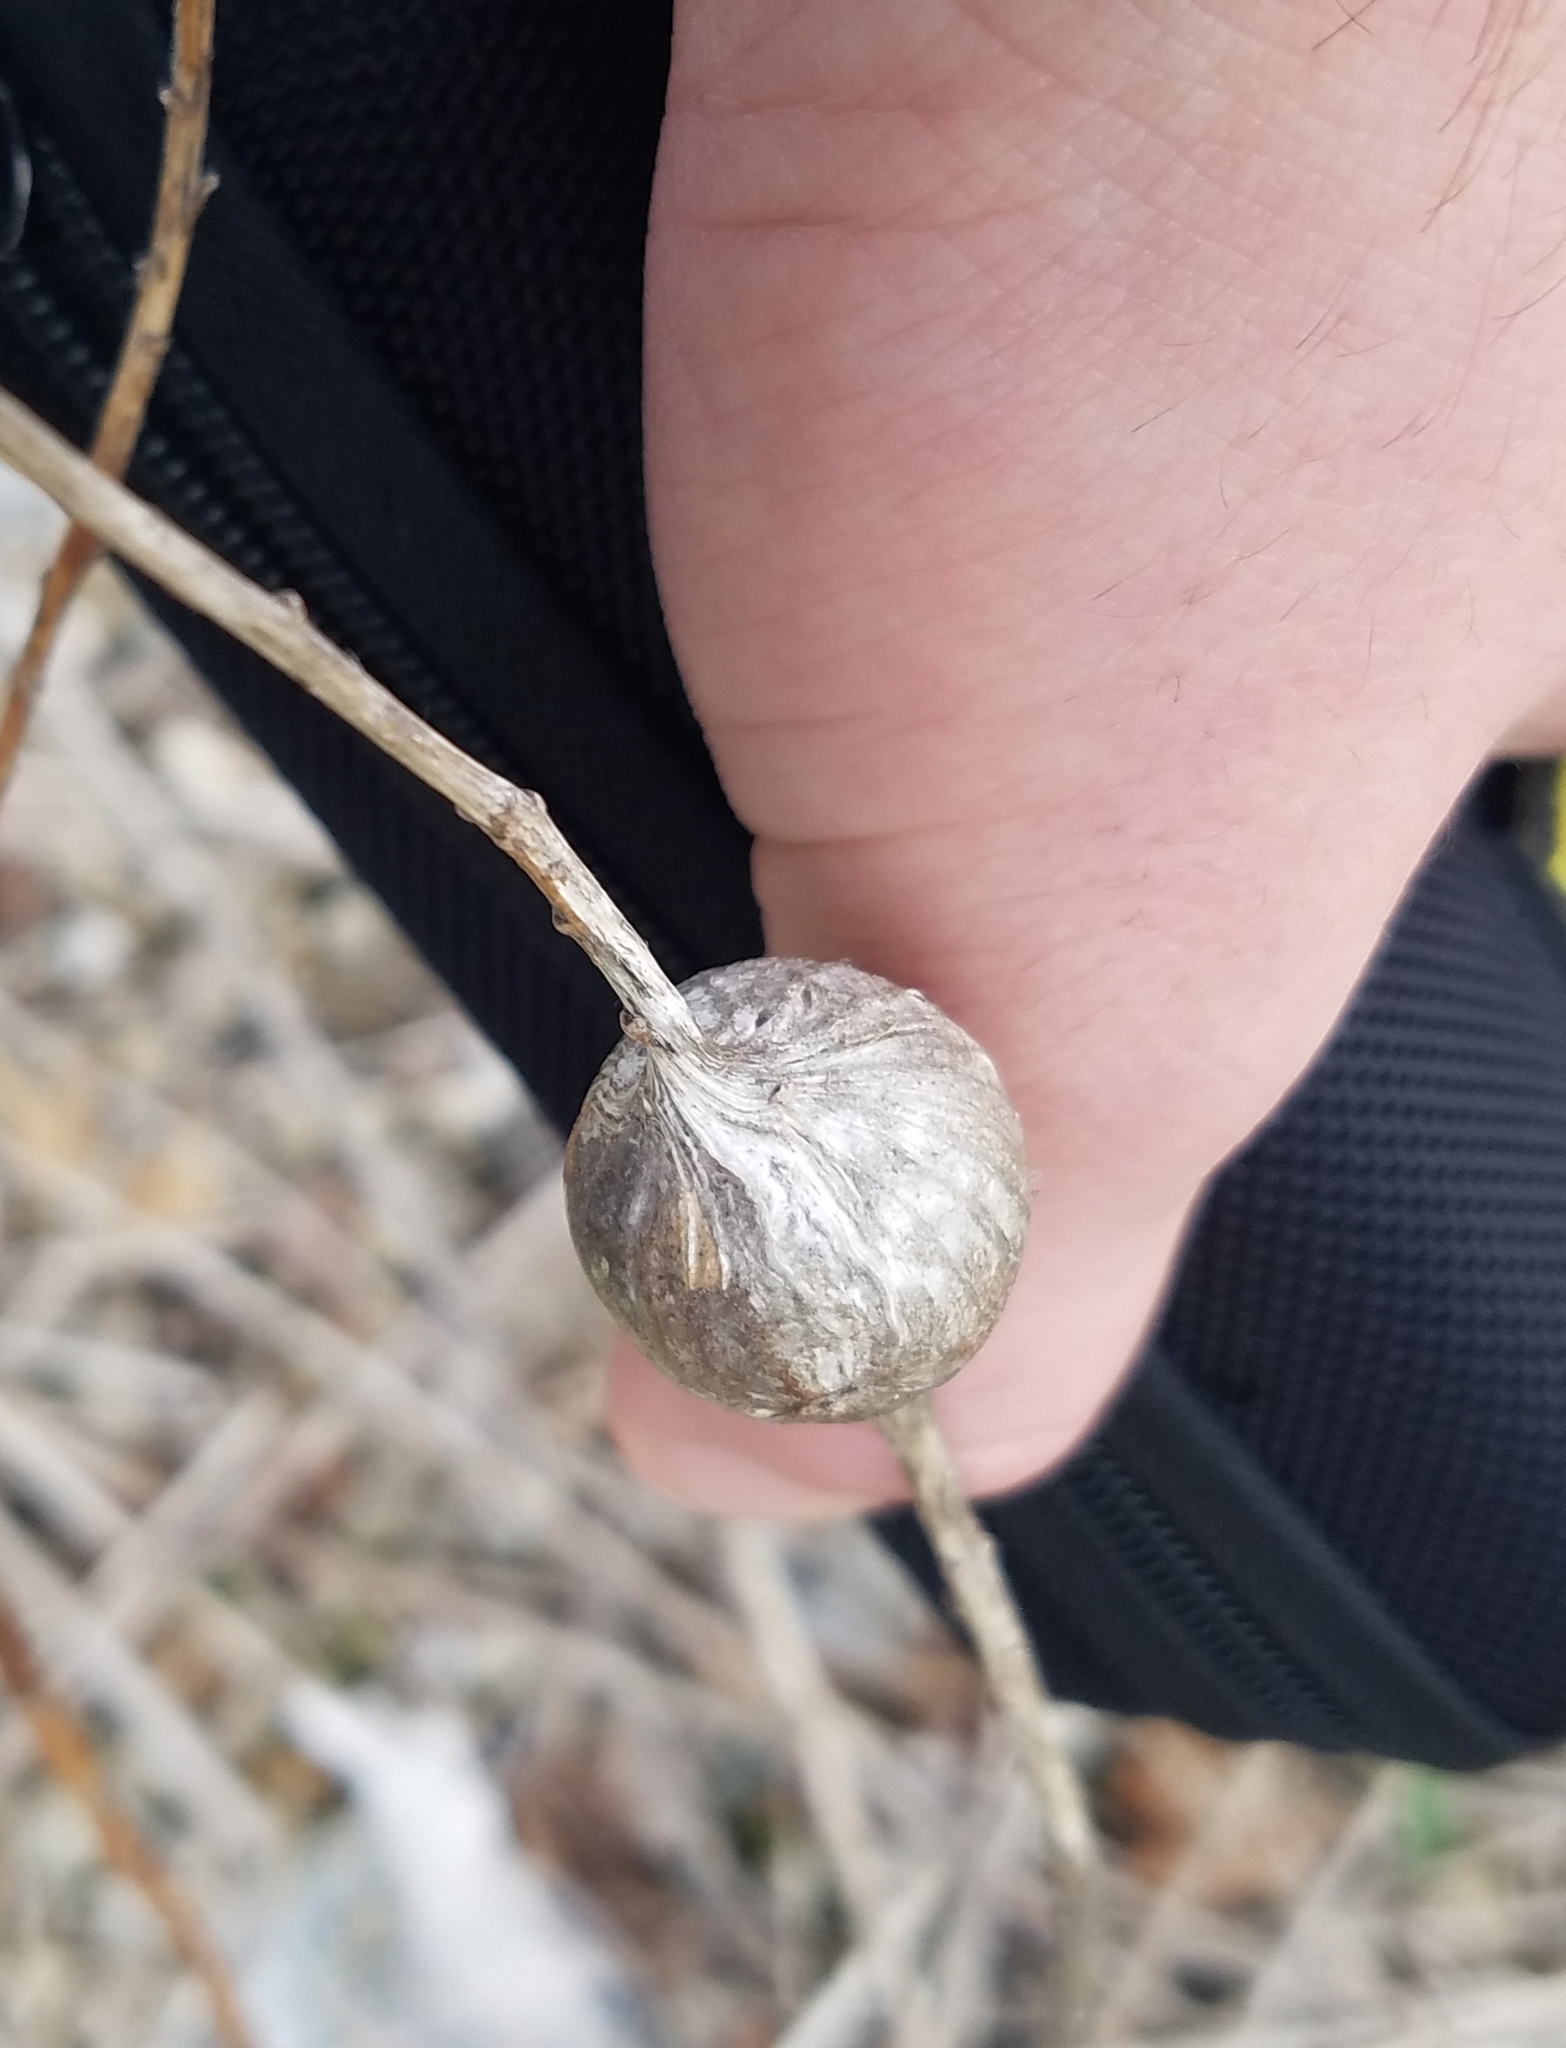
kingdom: Animalia
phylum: Arthropoda
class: Insecta
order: Diptera
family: Tephritidae
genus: Eurosta
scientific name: Eurosta solidaginis
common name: Goldenrod gall fly
